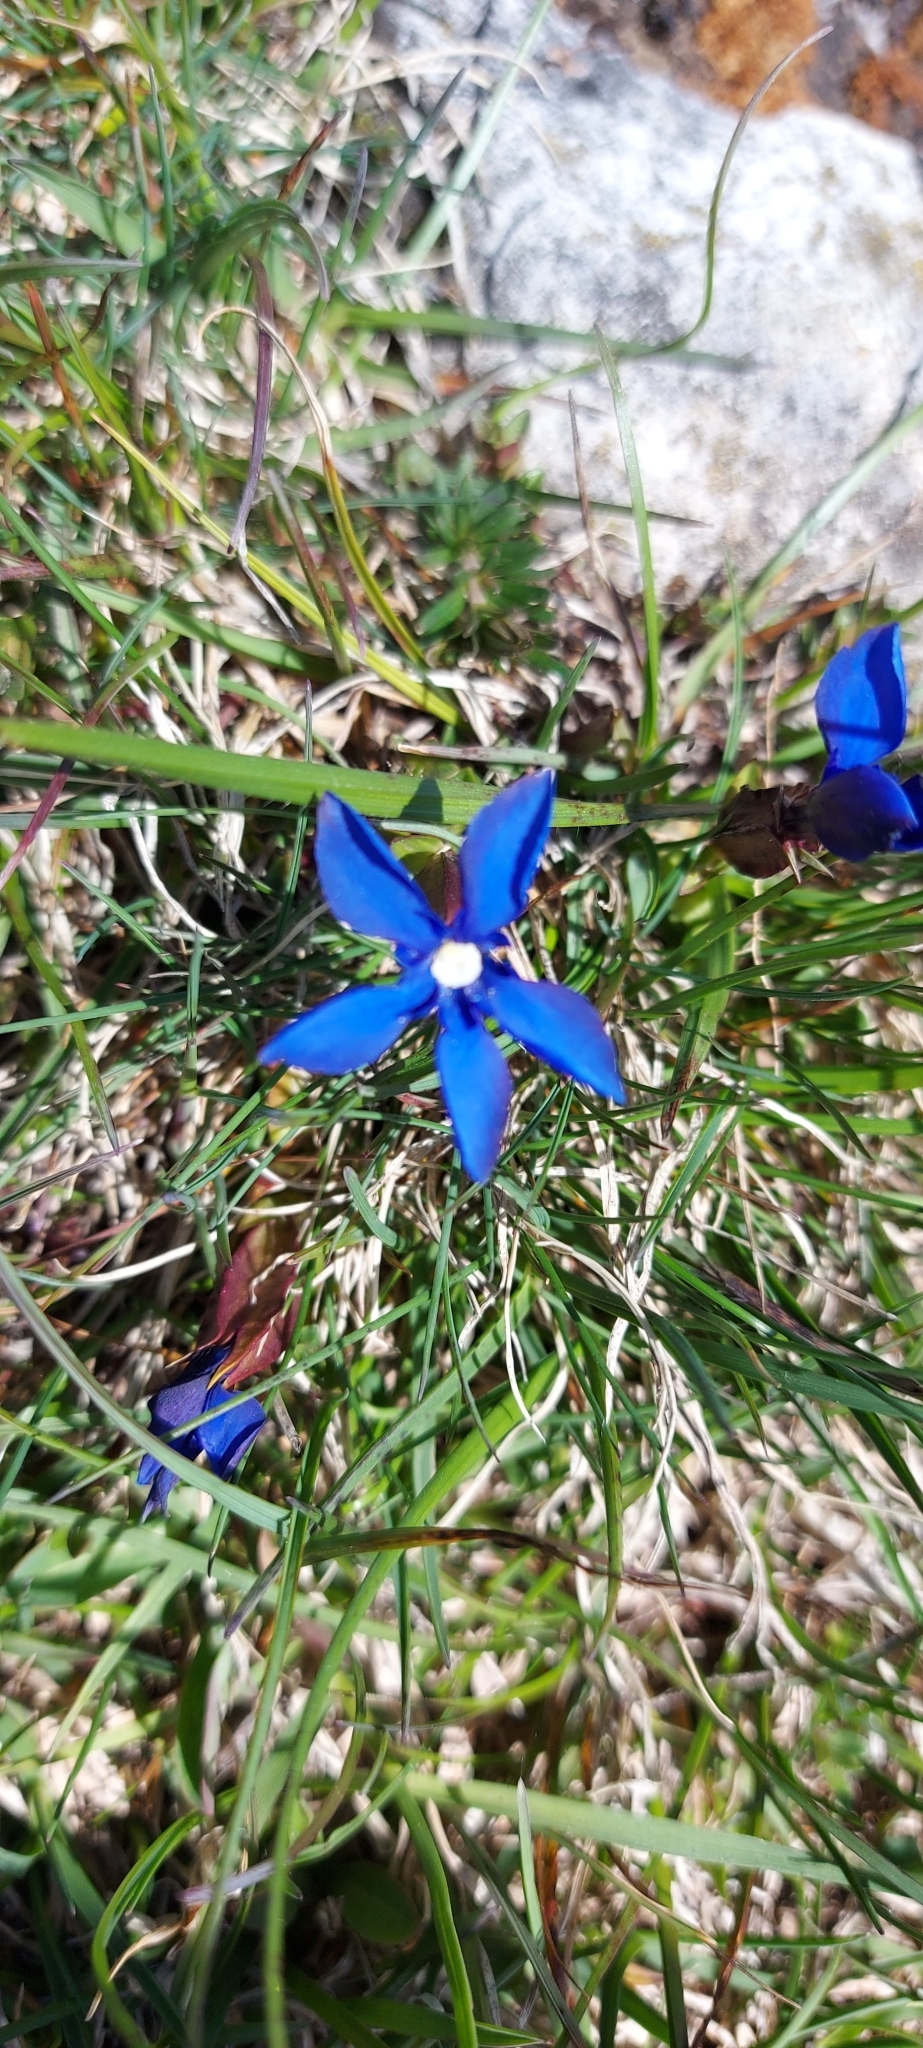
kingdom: Plantae
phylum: Tracheophyta
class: Magnoliopsida
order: Gentianales
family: Gentianaceae
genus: Gentiana
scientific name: Gentiana verna
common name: Spring gentian
